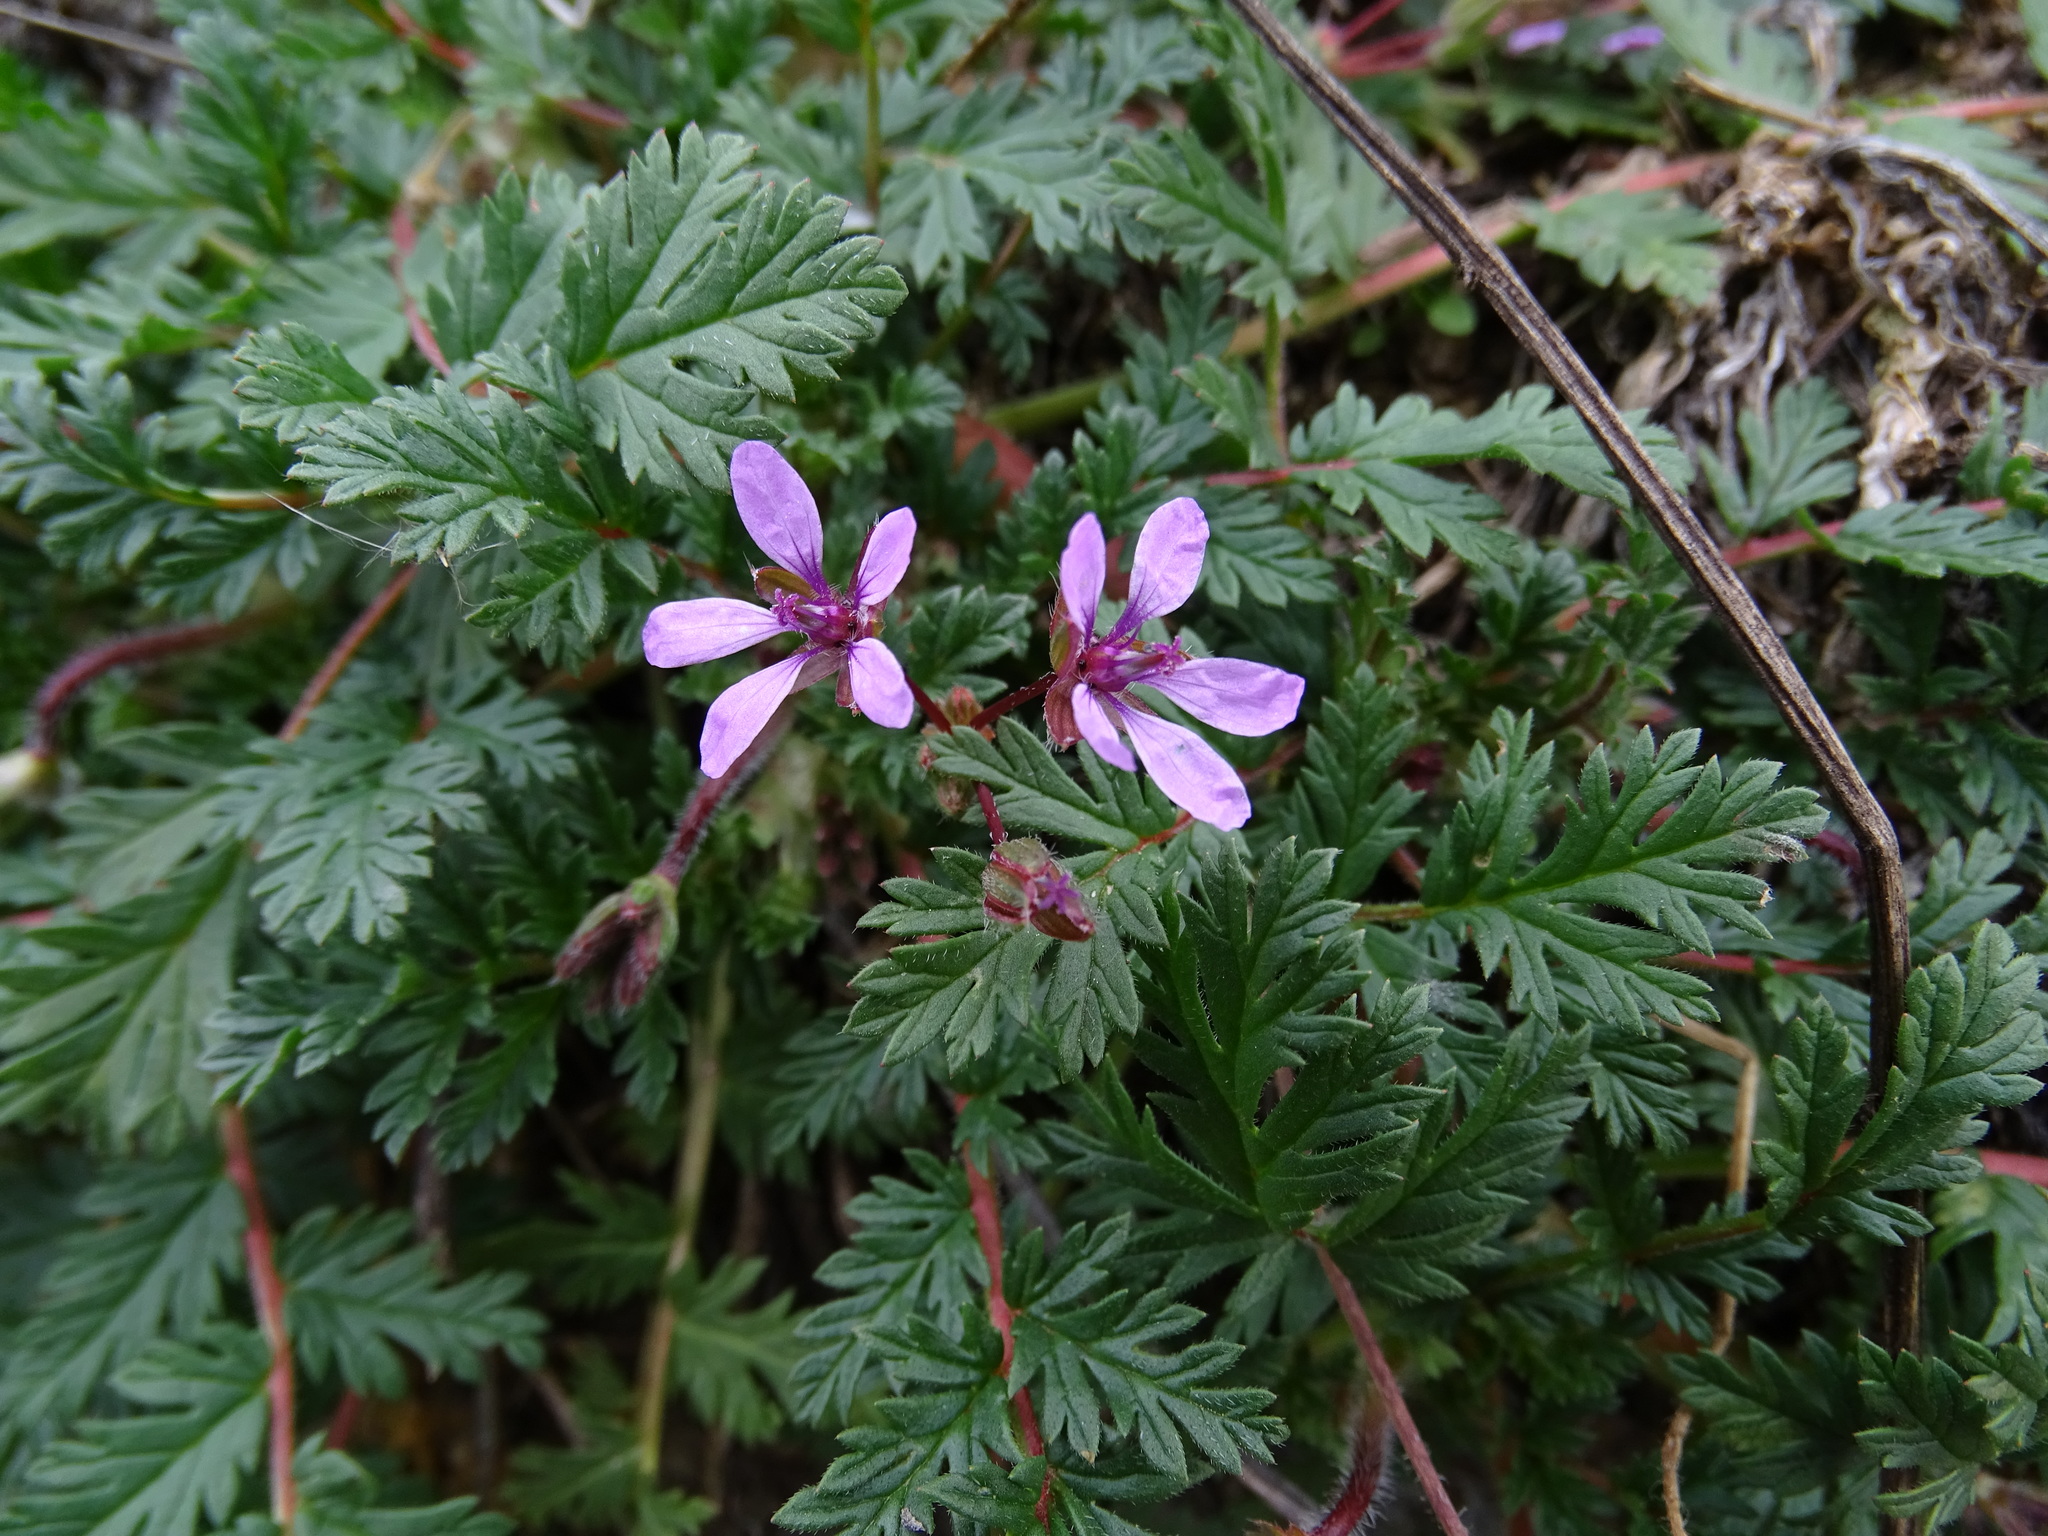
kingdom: Plantae
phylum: Tracheophyta
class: Magnoliopsida
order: Geraniales
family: Geraniaceae
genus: Erodium
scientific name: Erodium cicutarium
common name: Common stork's-bill
